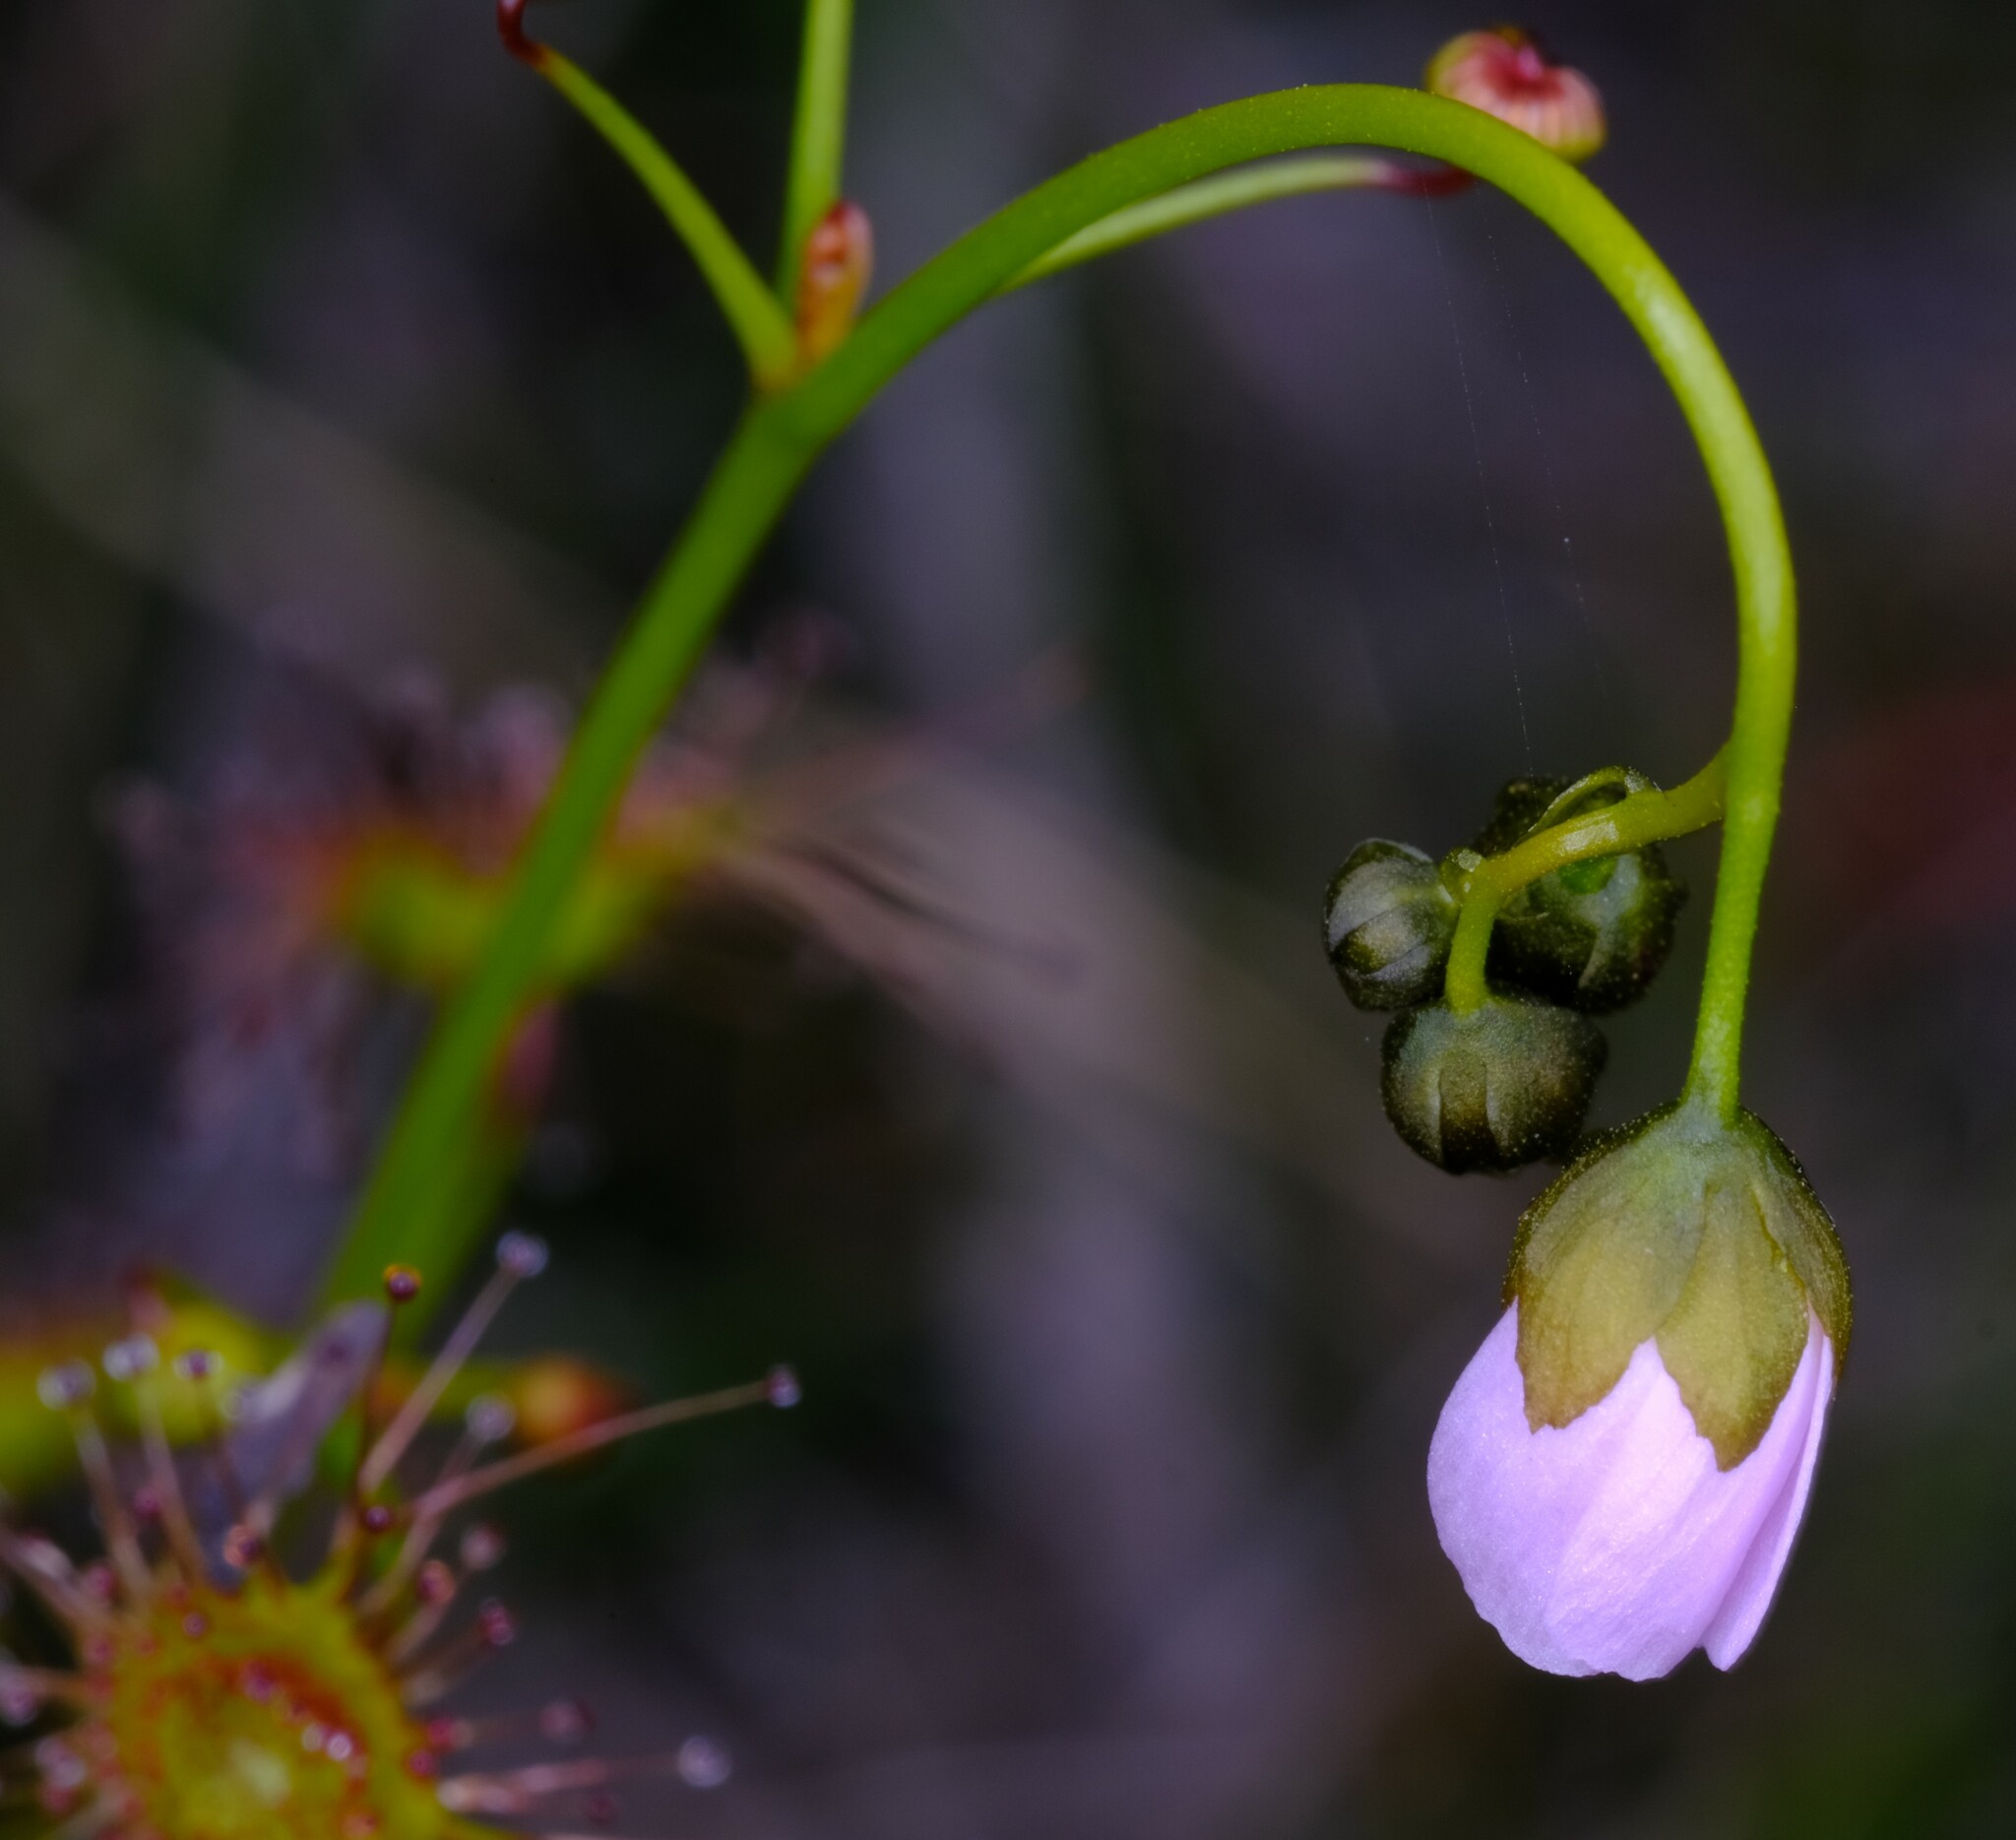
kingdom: Plantae
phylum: Tracheophyta
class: Magnoliopsida
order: Caryophyllales
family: Droseraceae
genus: Drosera
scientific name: Drosera peltata
